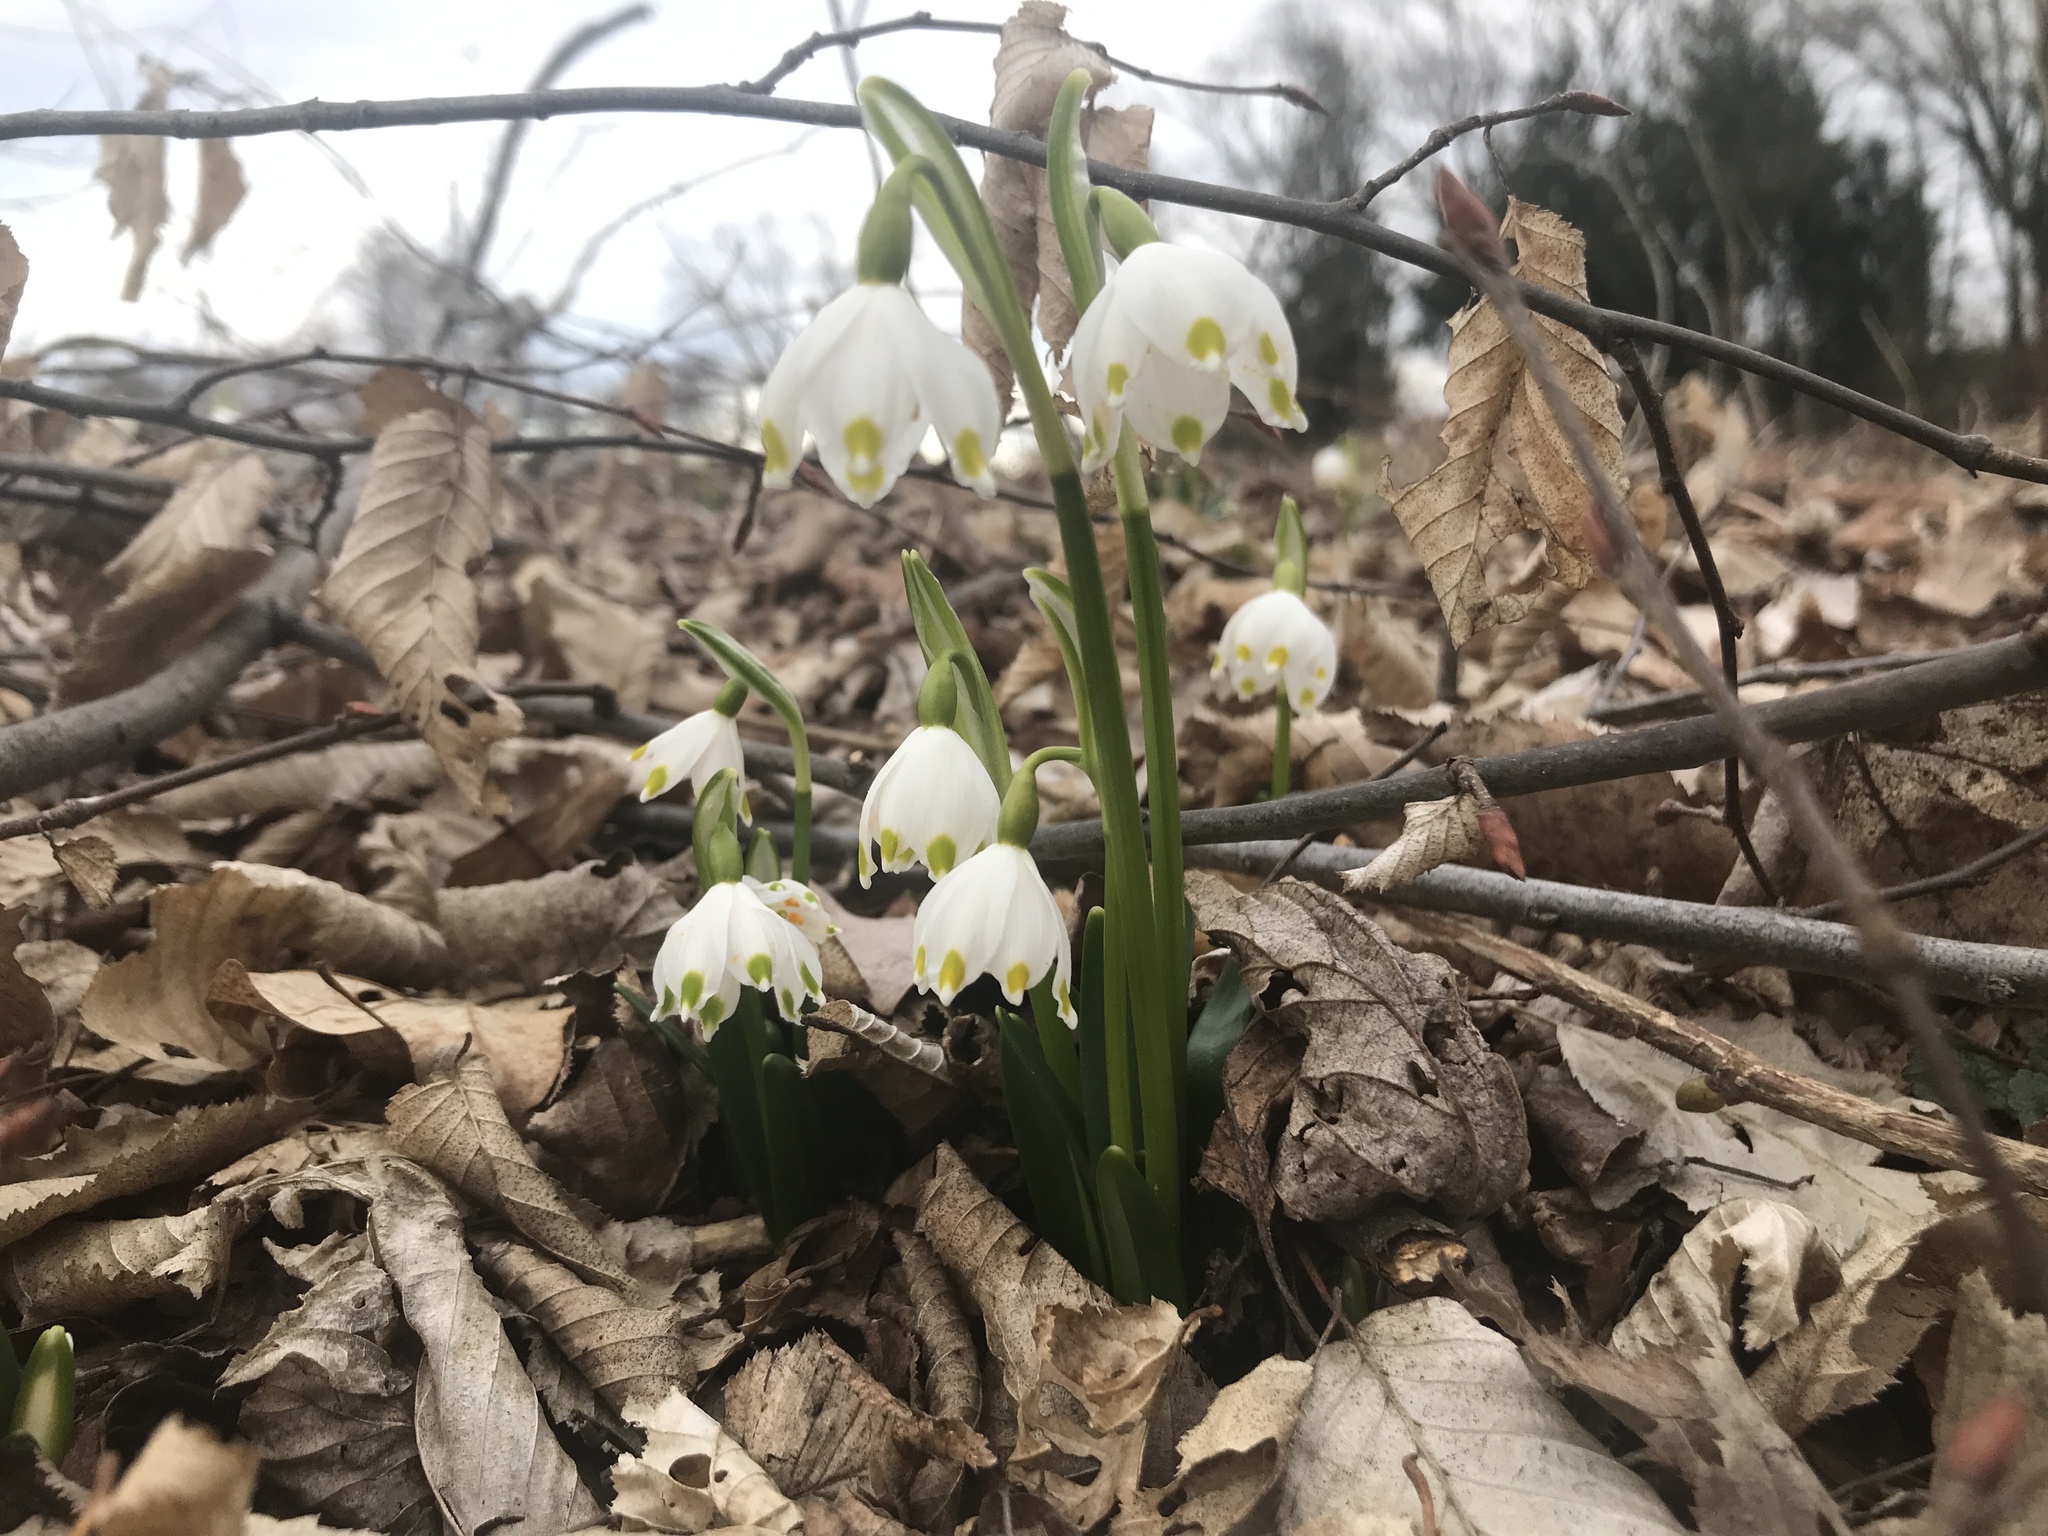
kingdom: Plantae
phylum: Tracheophyta
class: Liliopsida
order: Asparagales
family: Amaryllidaceae
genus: Leucojum
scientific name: Leucojum vernum
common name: Spring snowflake
